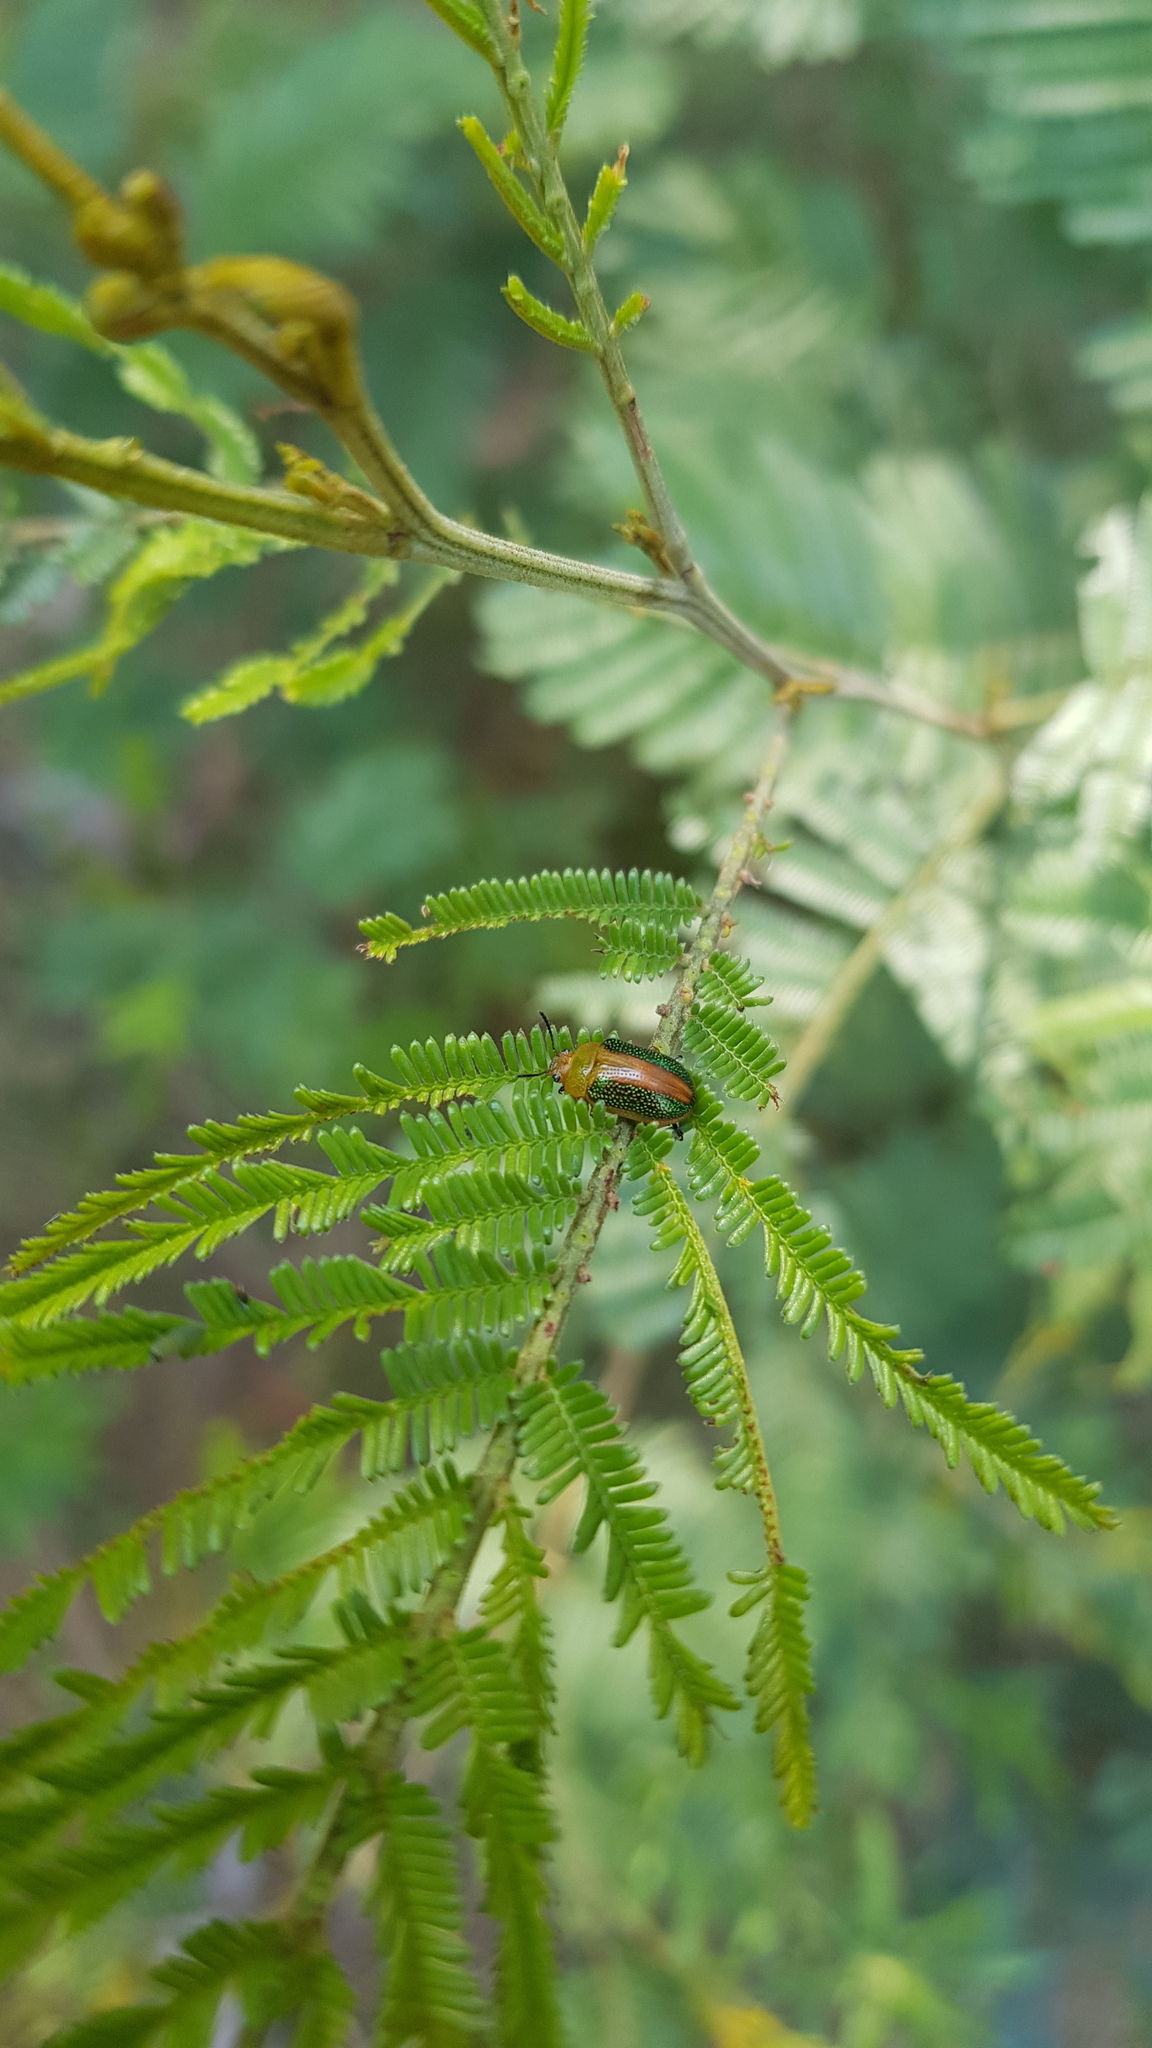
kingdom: Animalia
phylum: Arthropoda
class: Insecta
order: Coleoptera
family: Chrysomelidae
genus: Calomela
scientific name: Calomela
